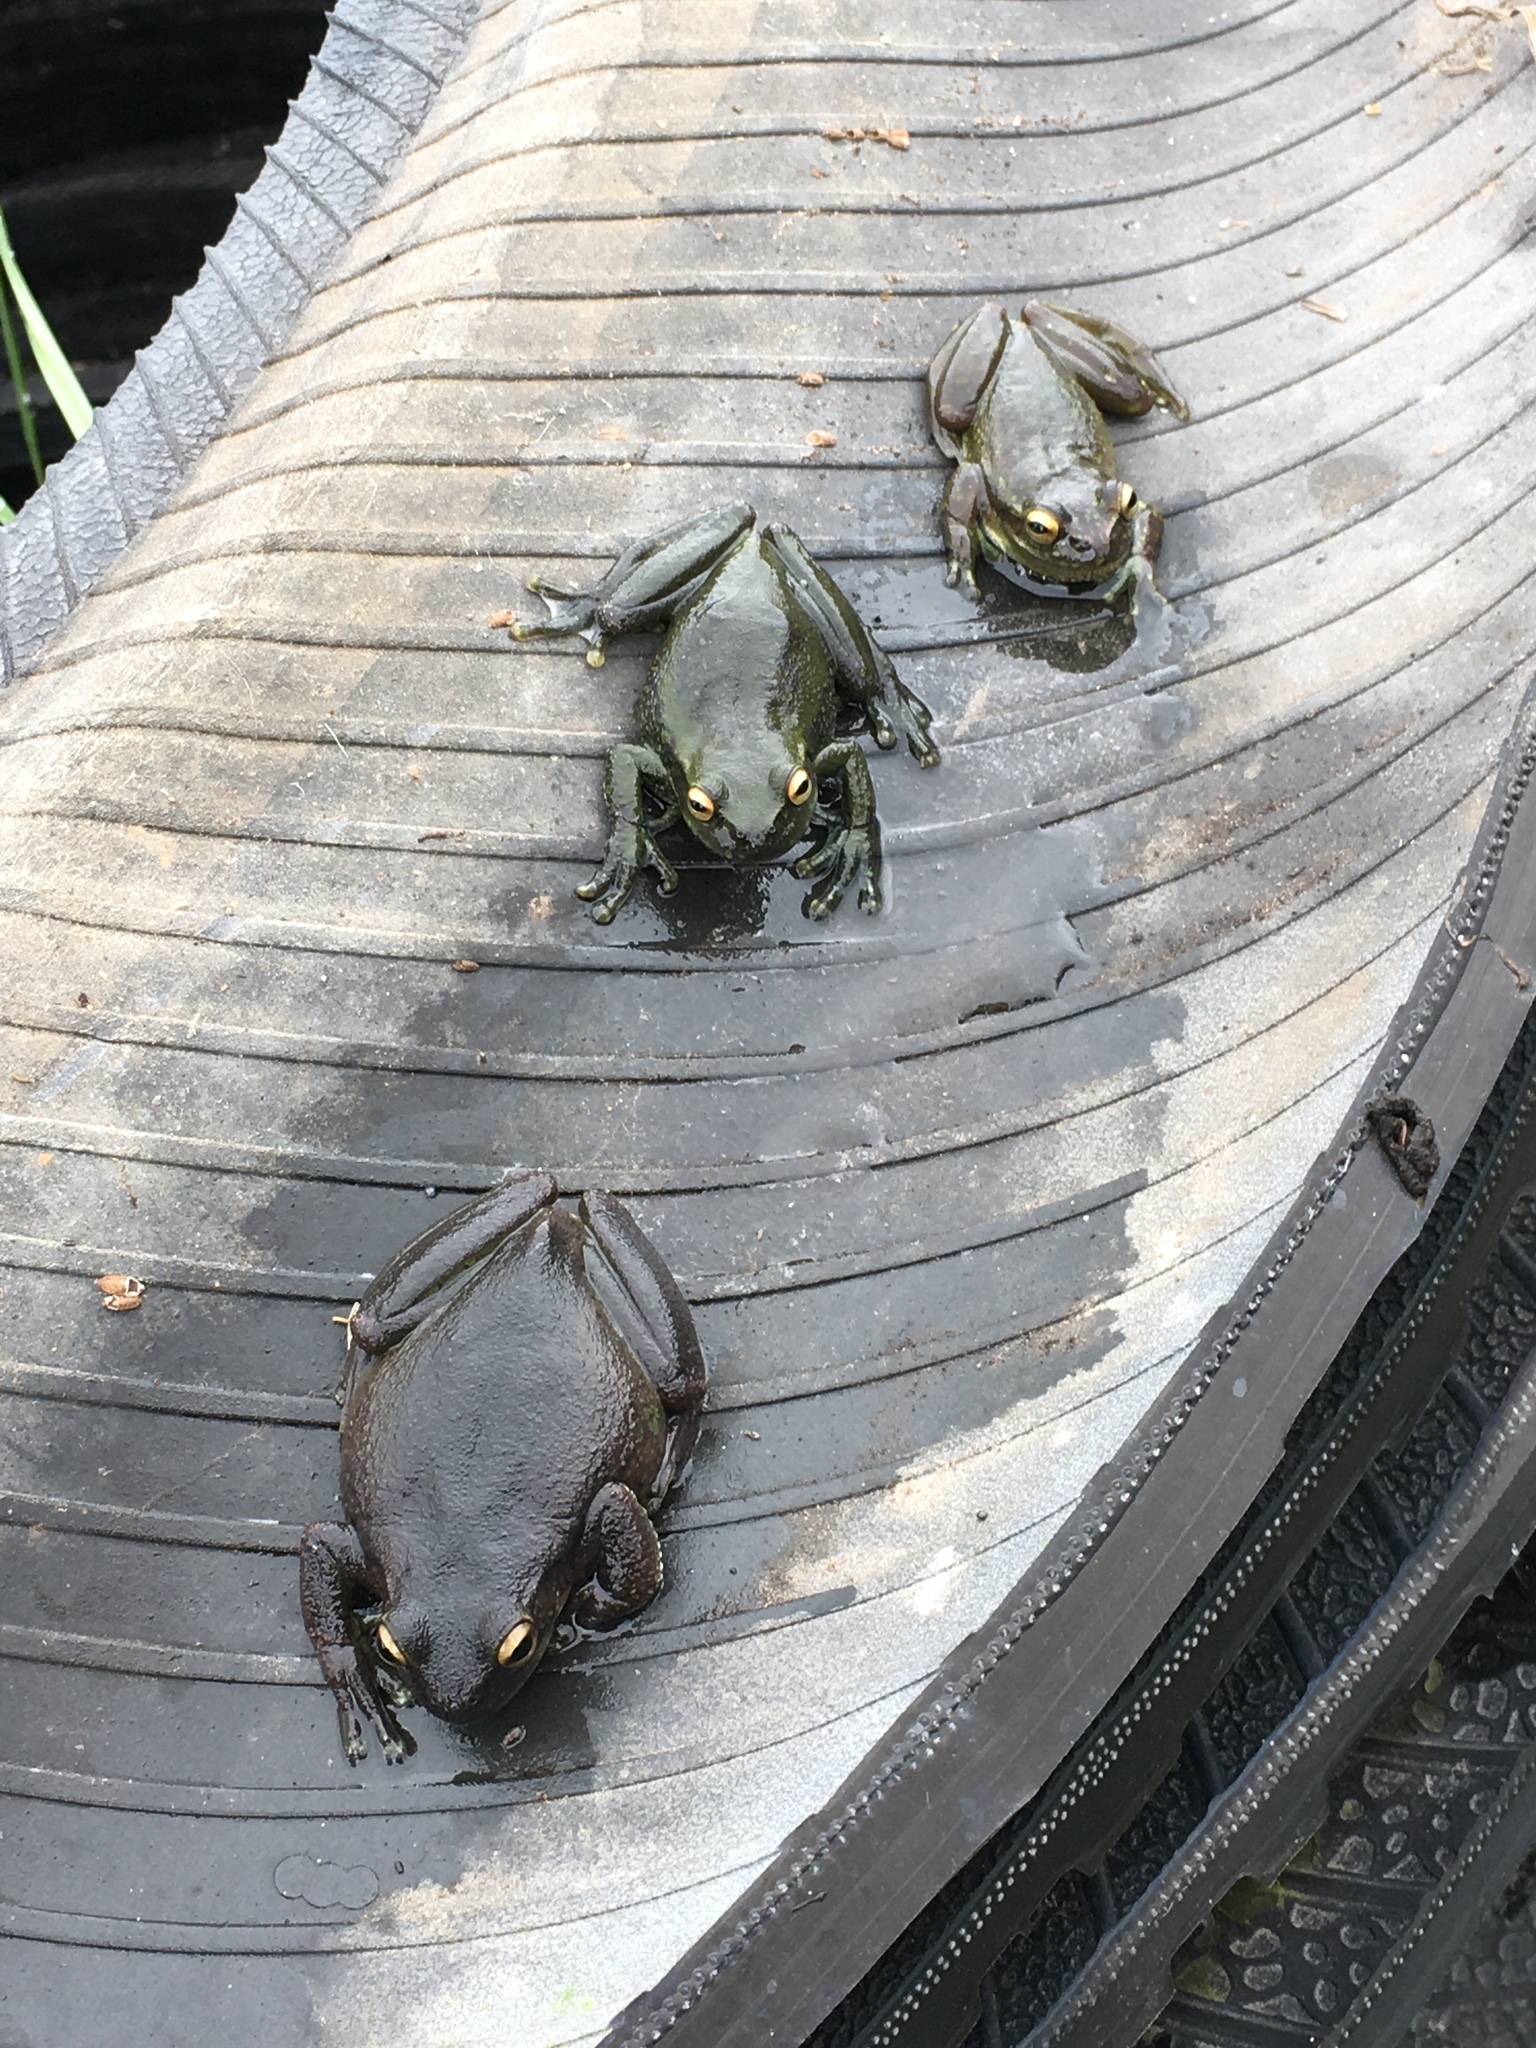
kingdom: Animalia
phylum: Chordata
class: Amphibia
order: Anura
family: Hylidae
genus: Dendropsophus
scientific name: Dendropsophus molitor
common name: Green dotted treefrog
